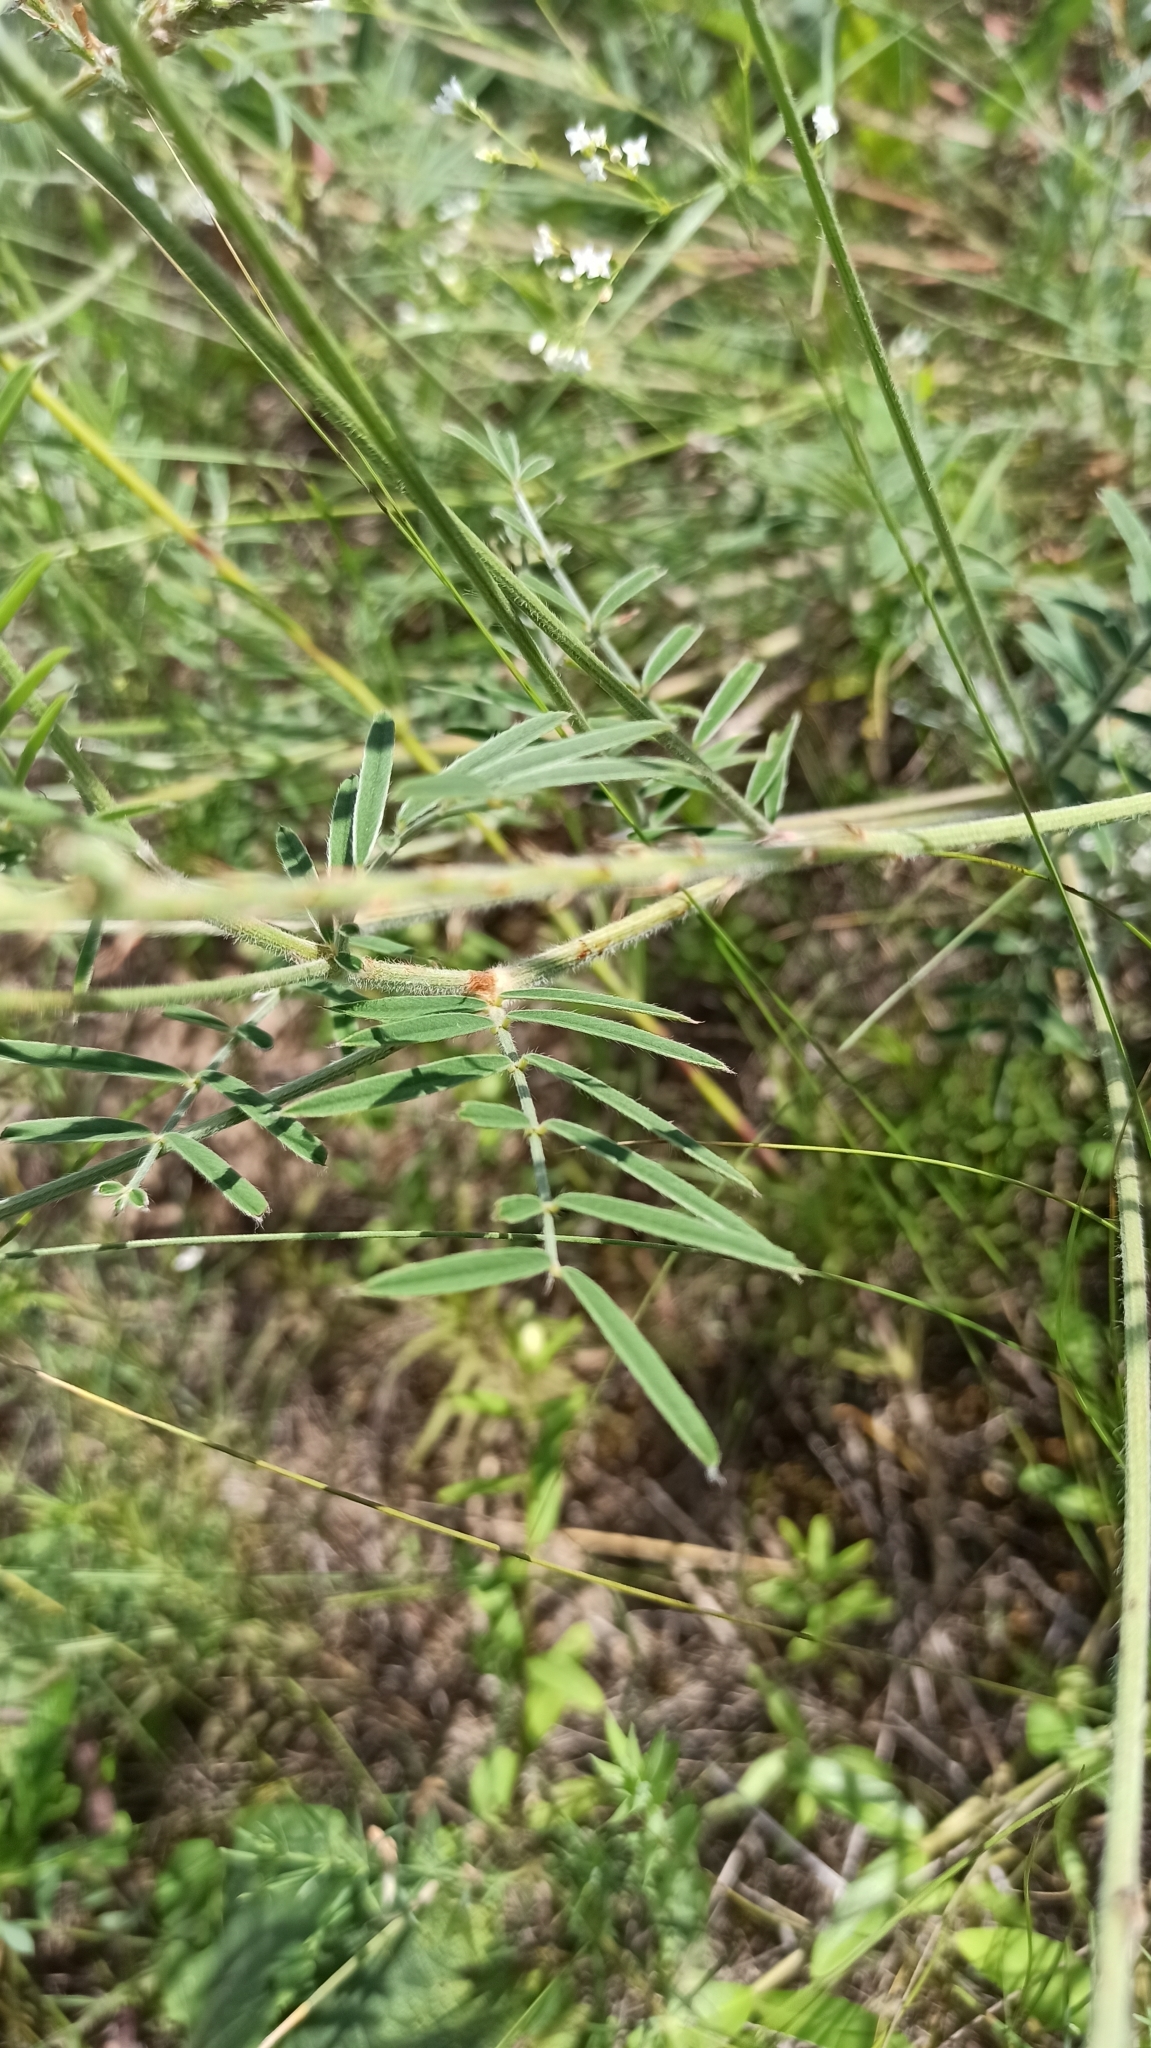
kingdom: Plantae
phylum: Tracheophyta
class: Magnoliopsida
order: Fabales
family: Fabaceae
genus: Onobrychis
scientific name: Onobrychis viciifolia
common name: Sainfoin
